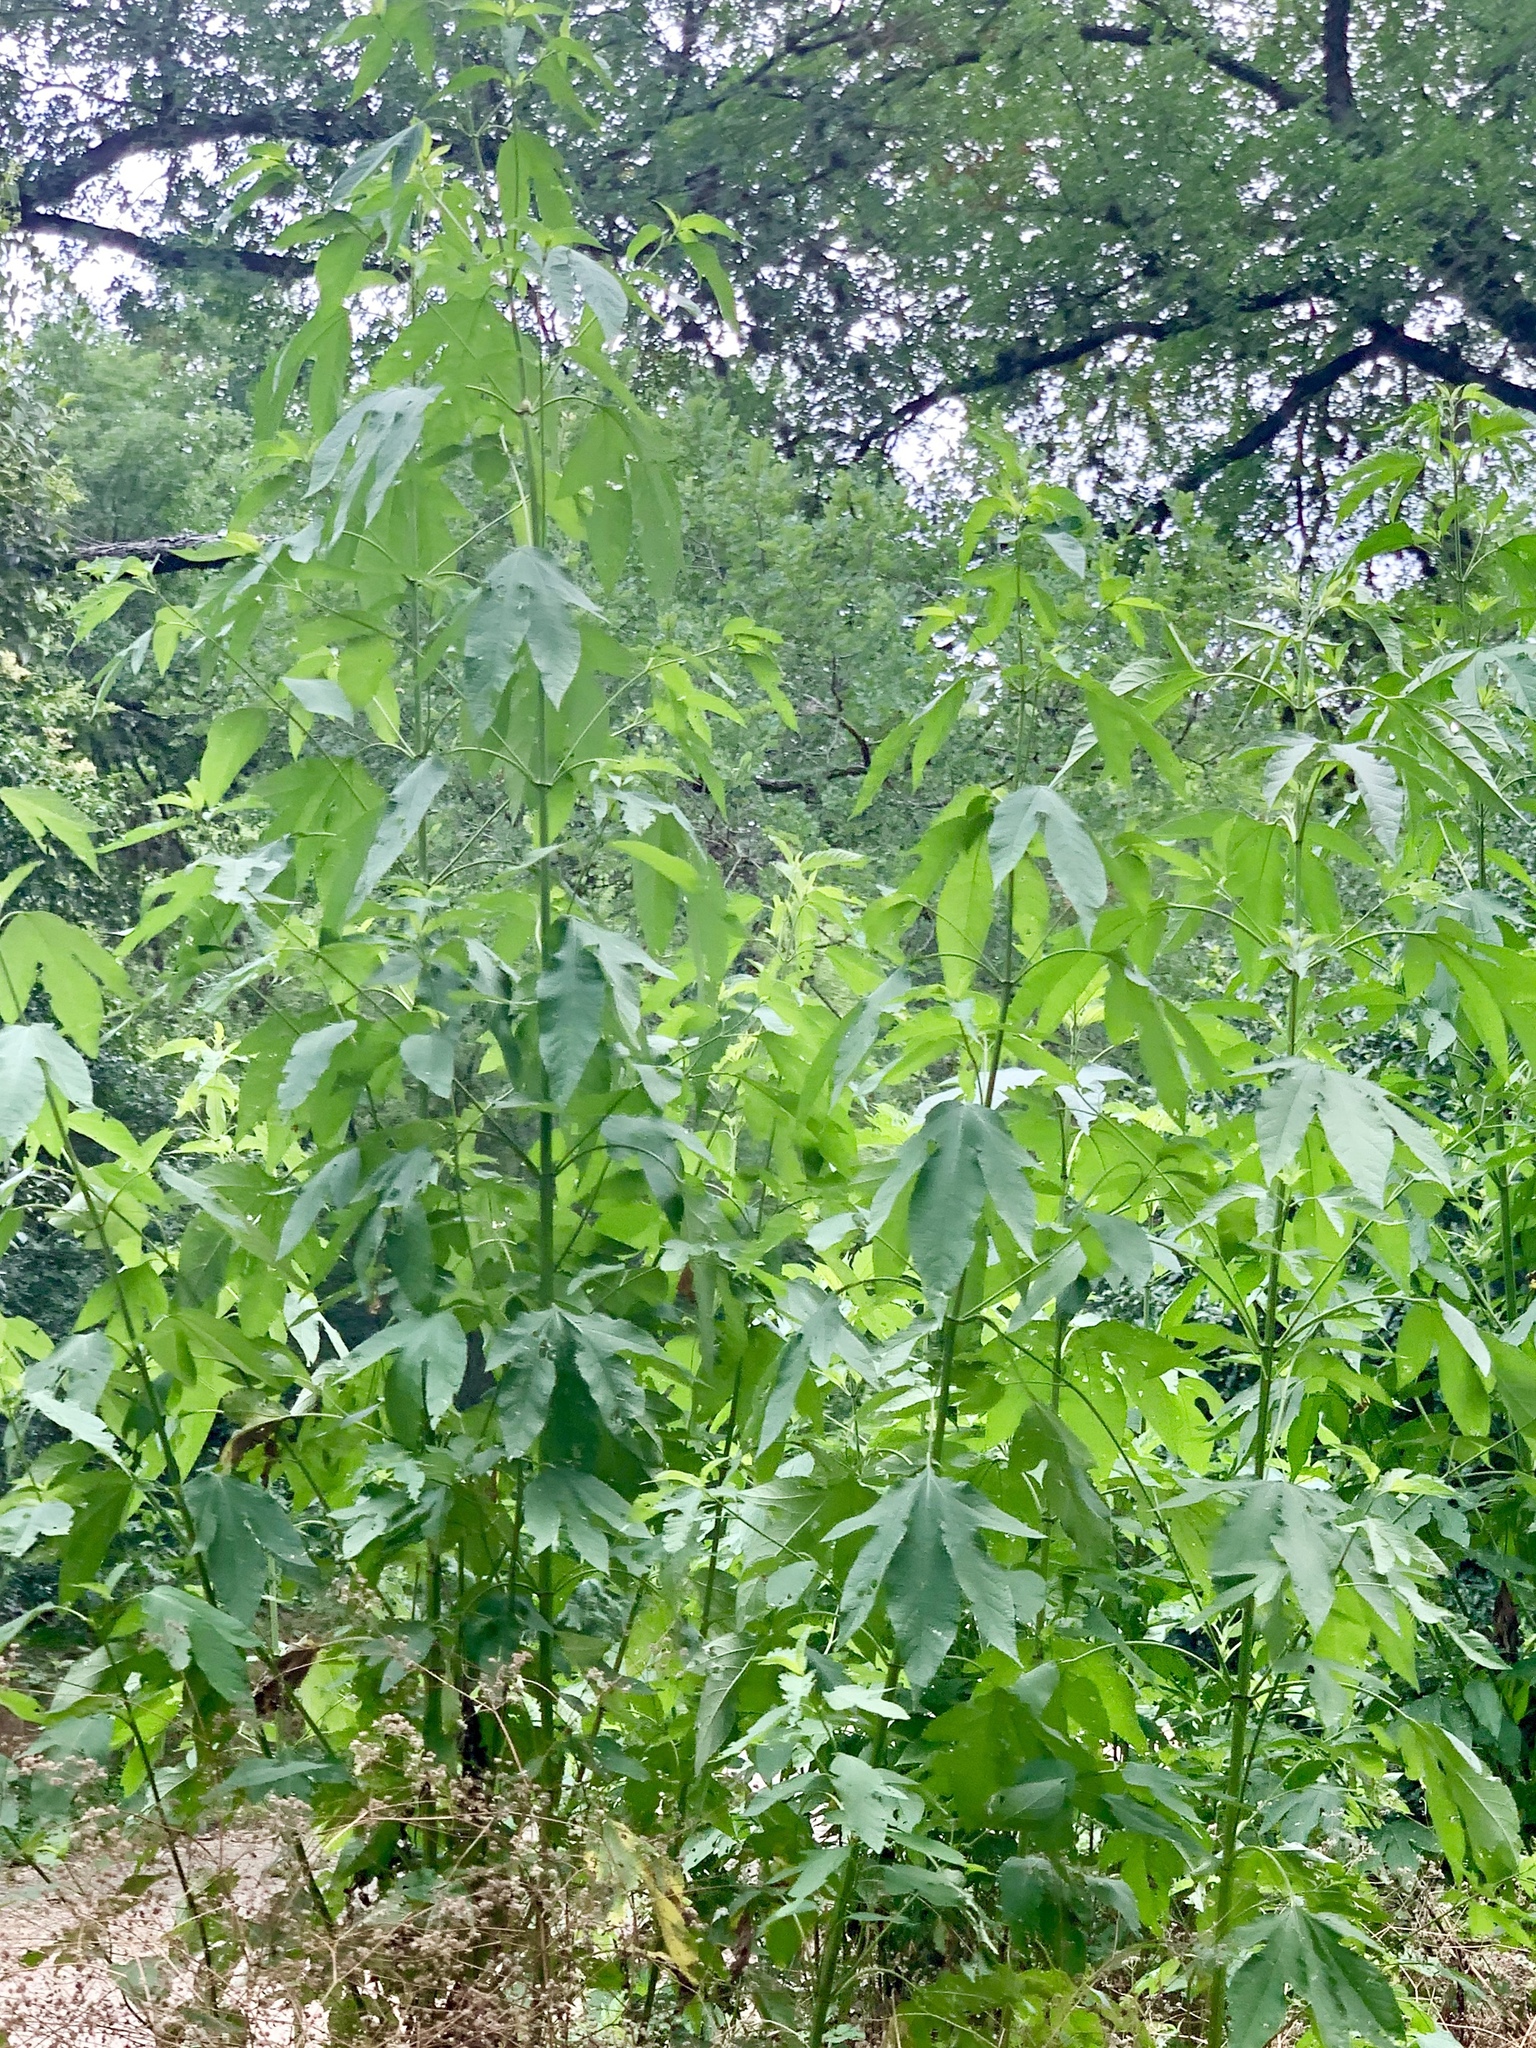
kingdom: Plantae
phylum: Tracheophyta
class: Magnoliopsida
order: Asterales
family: Asteraceae
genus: Ambrosia
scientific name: Ambrosia trifida
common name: Giant ragweed
